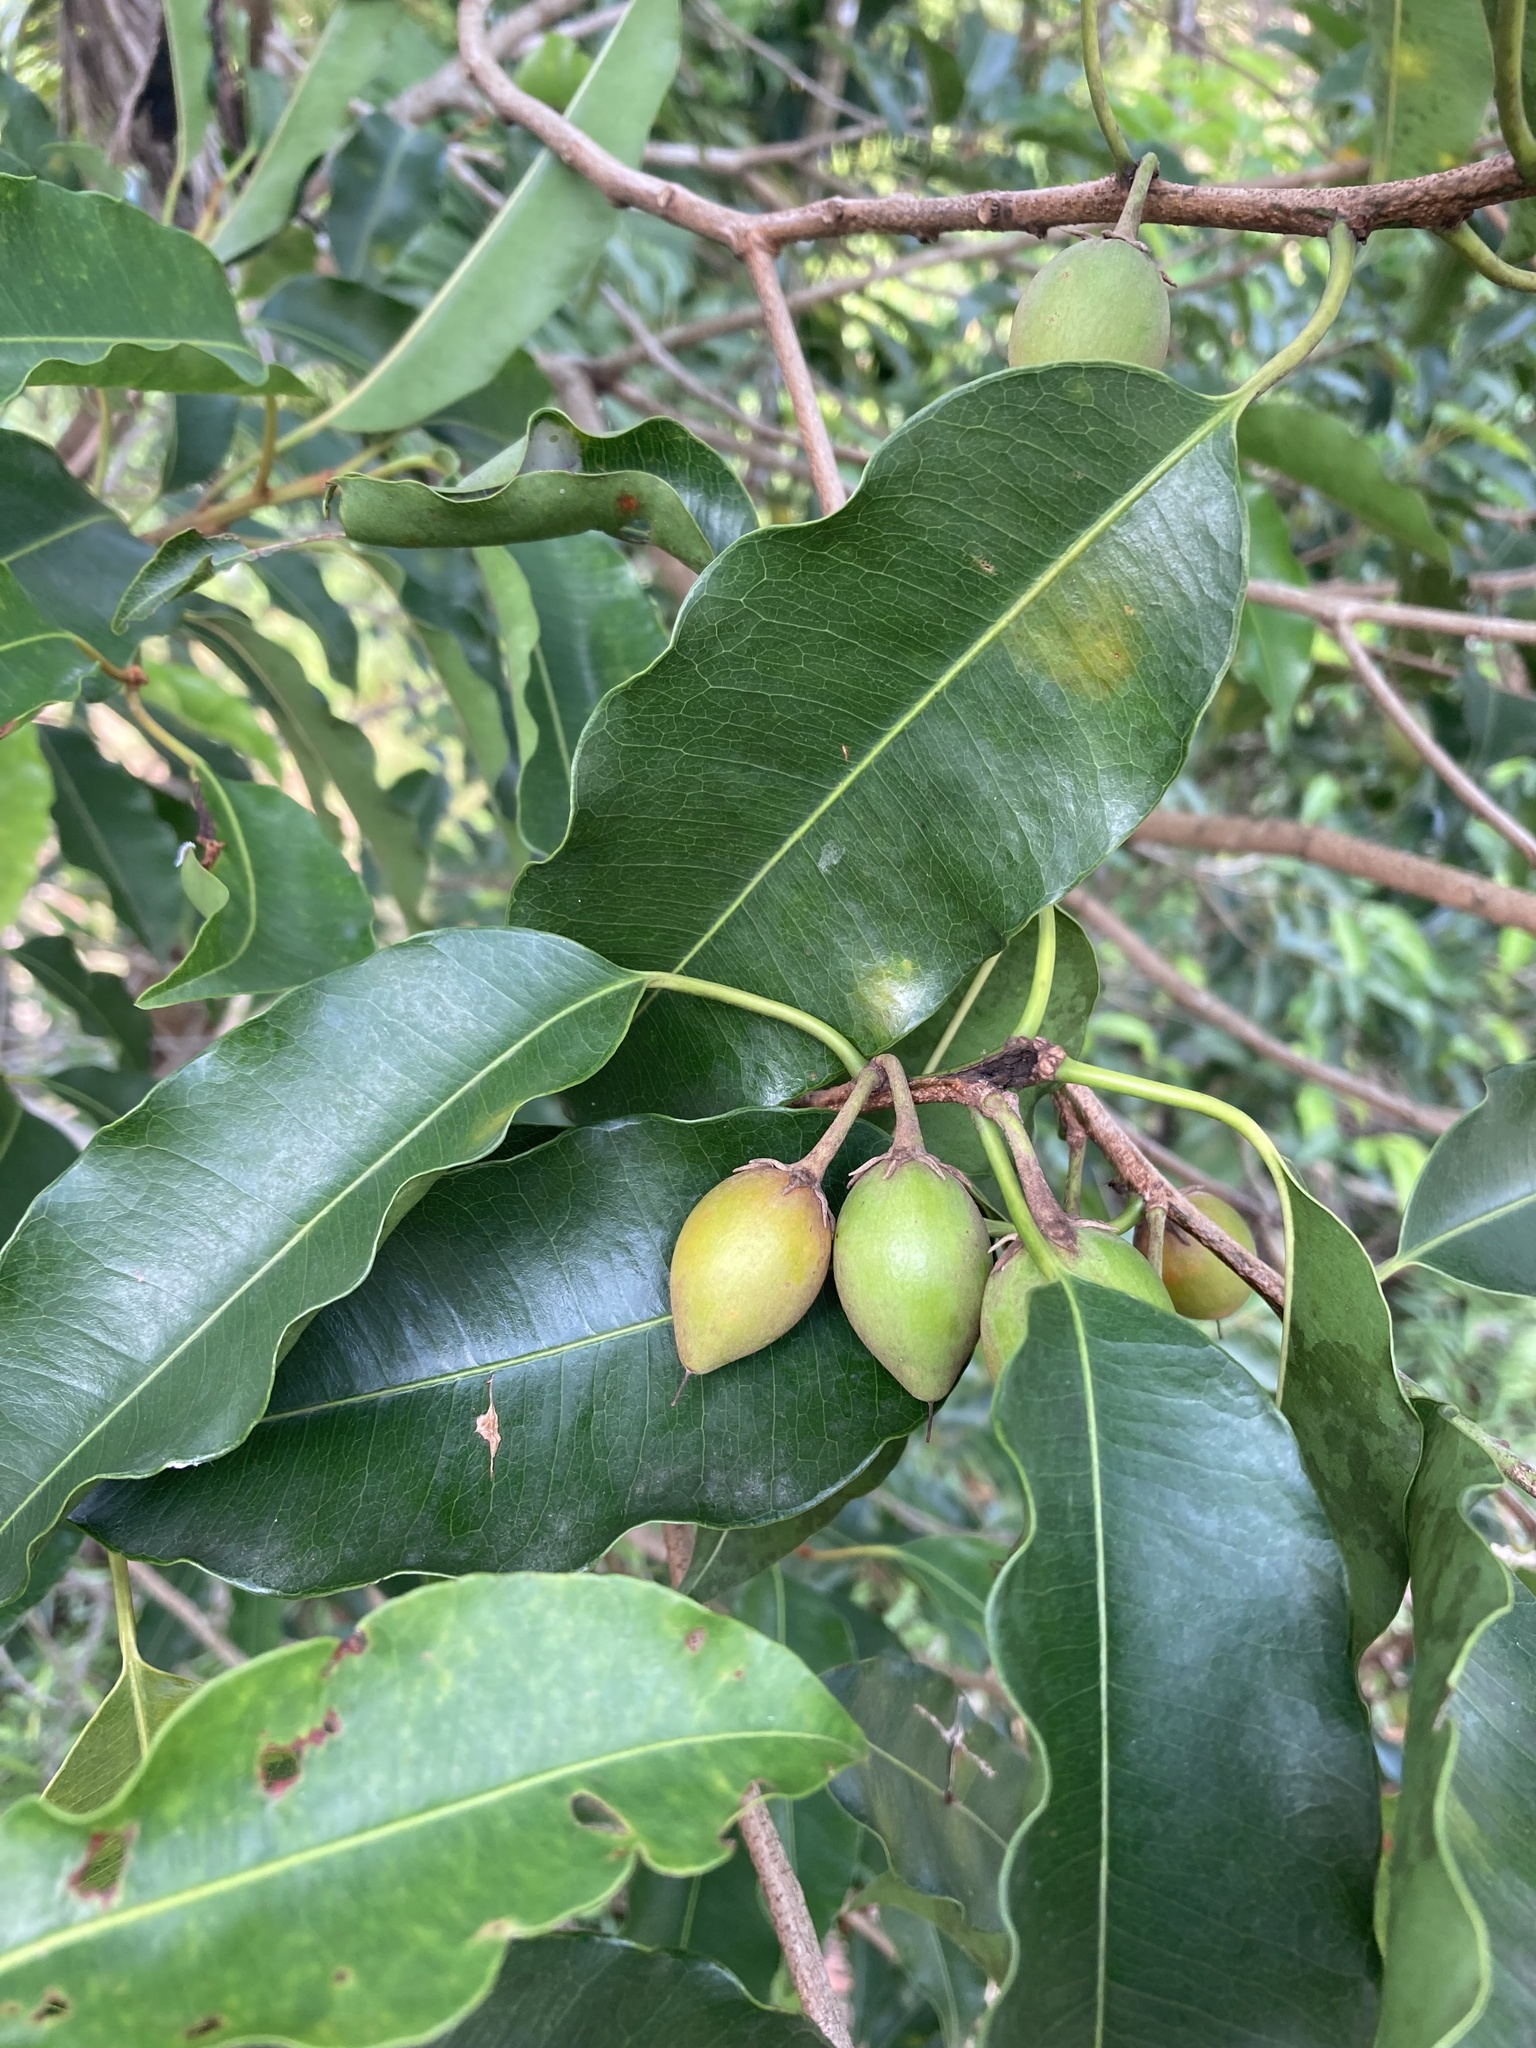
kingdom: Plantae
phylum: Tracheophyta
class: Magnoliopsida
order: Ericales
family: Sapotaceae
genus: Mimusops
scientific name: Mimusops elengi
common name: Spanish cherry
